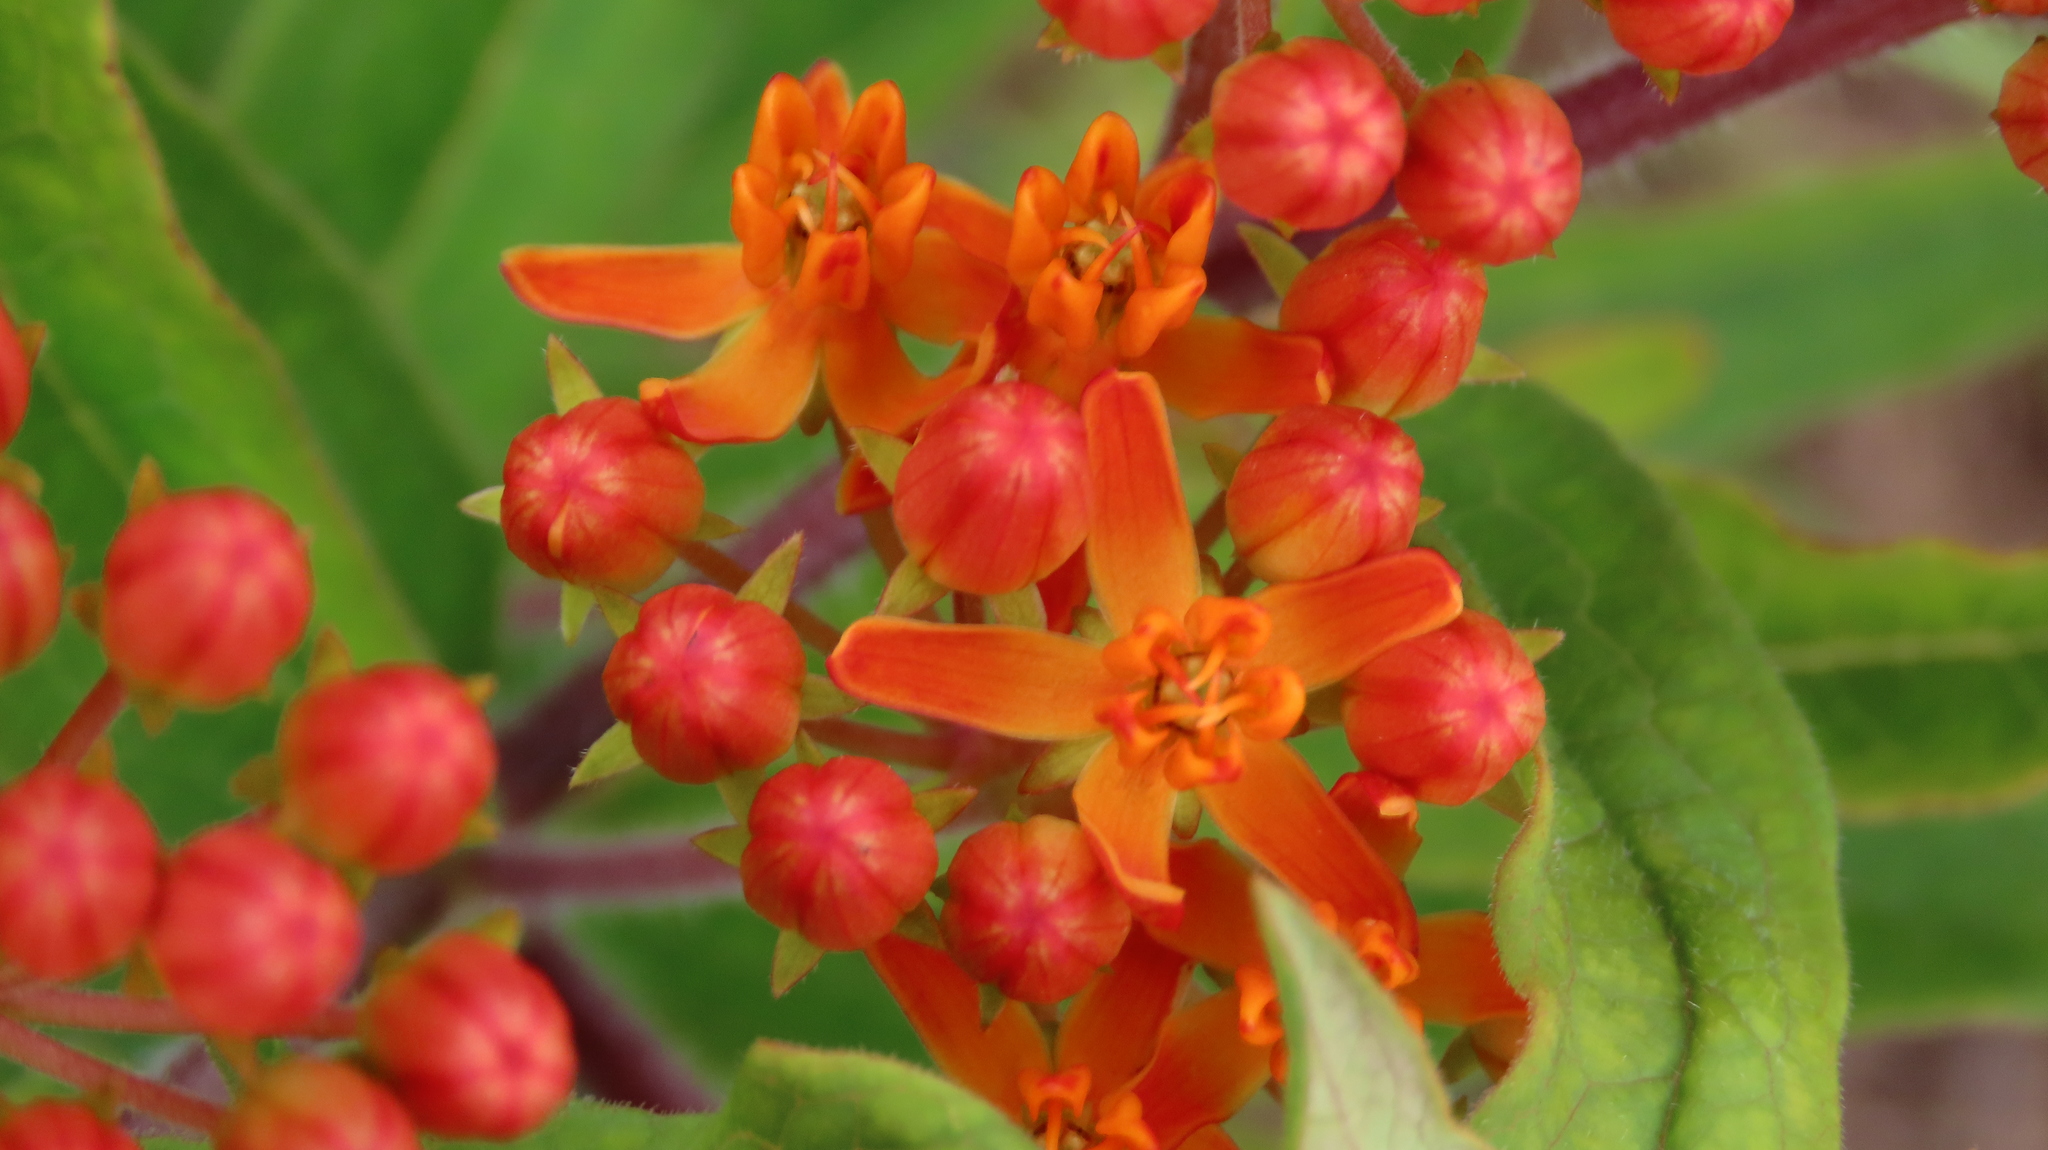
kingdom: Plantae
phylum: Tracheophyta
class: Magnoliopsida
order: Gentianales
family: Apocynaceae
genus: Asclepias
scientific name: Asclepias tuberosa
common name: Butterfly milkweed
